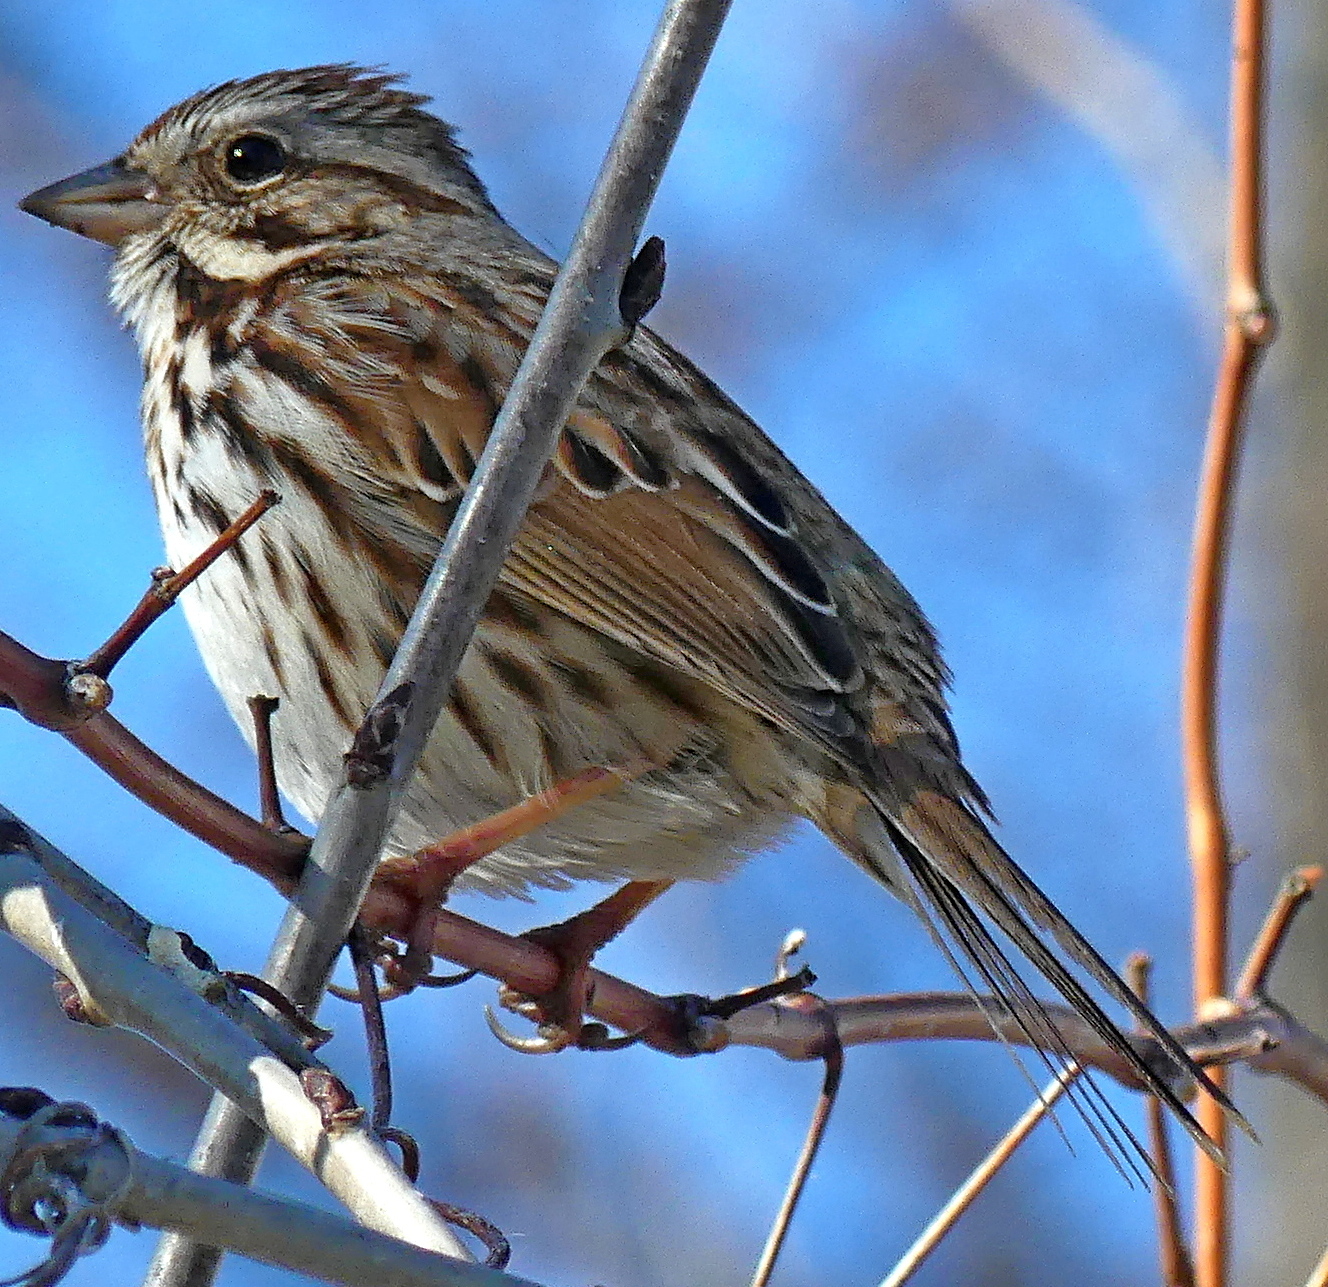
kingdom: Animalia
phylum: Chordata
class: Aves
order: Passeriformes
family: Passerellidae
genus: Melospiza
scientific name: Melospiza melodia
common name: Song sparrow
